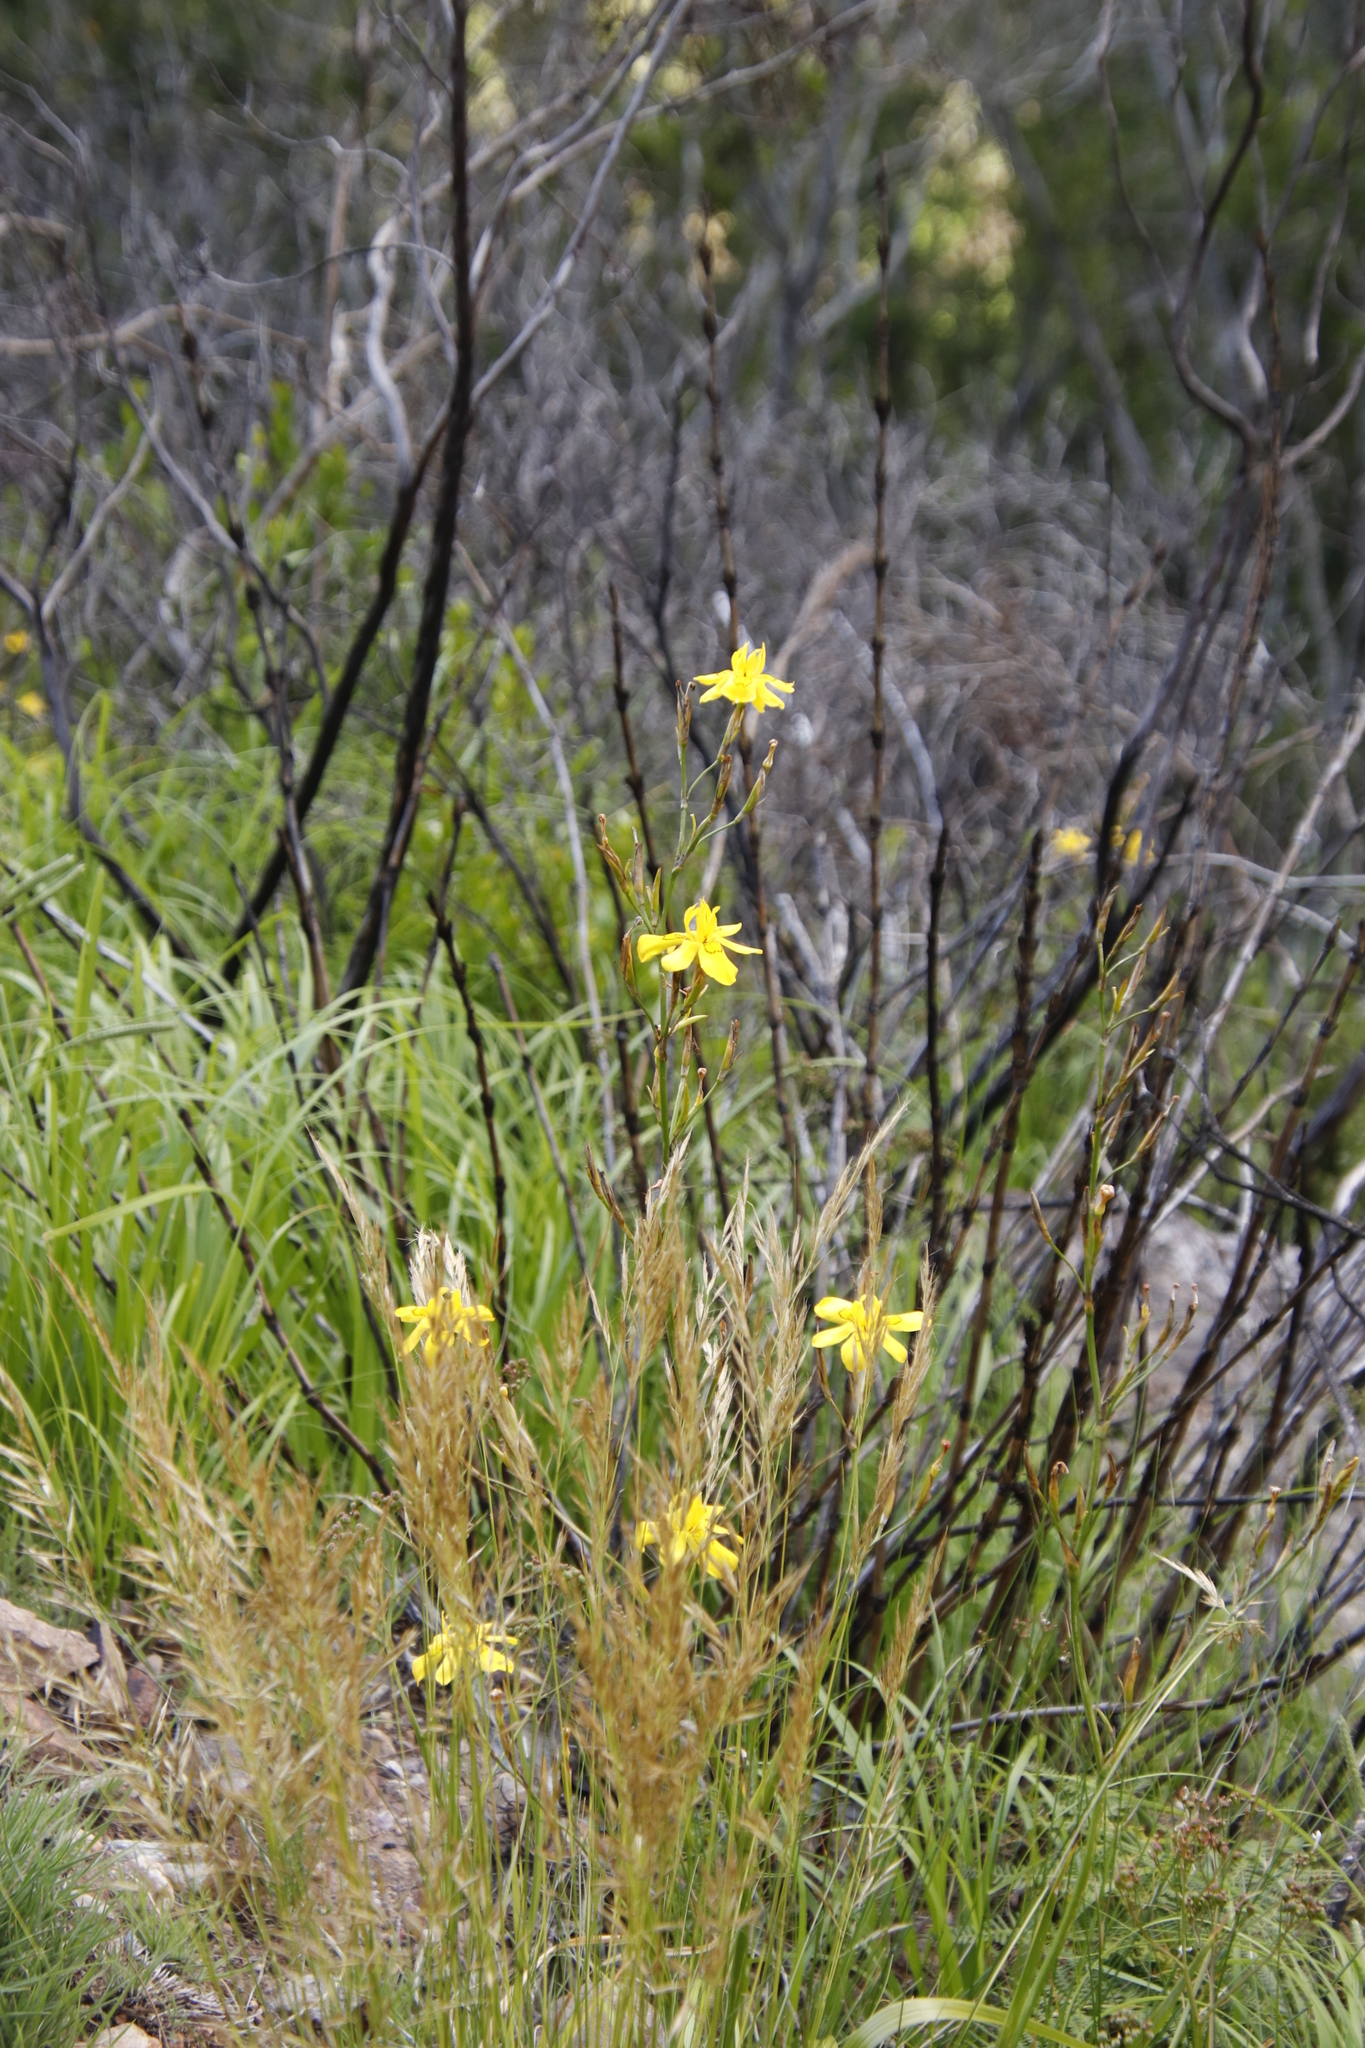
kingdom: Plantae
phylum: Tracheophyta
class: Liliopsida
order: Asparagales
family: Iridaceae
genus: Moraea
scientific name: Moraea ramosissima
